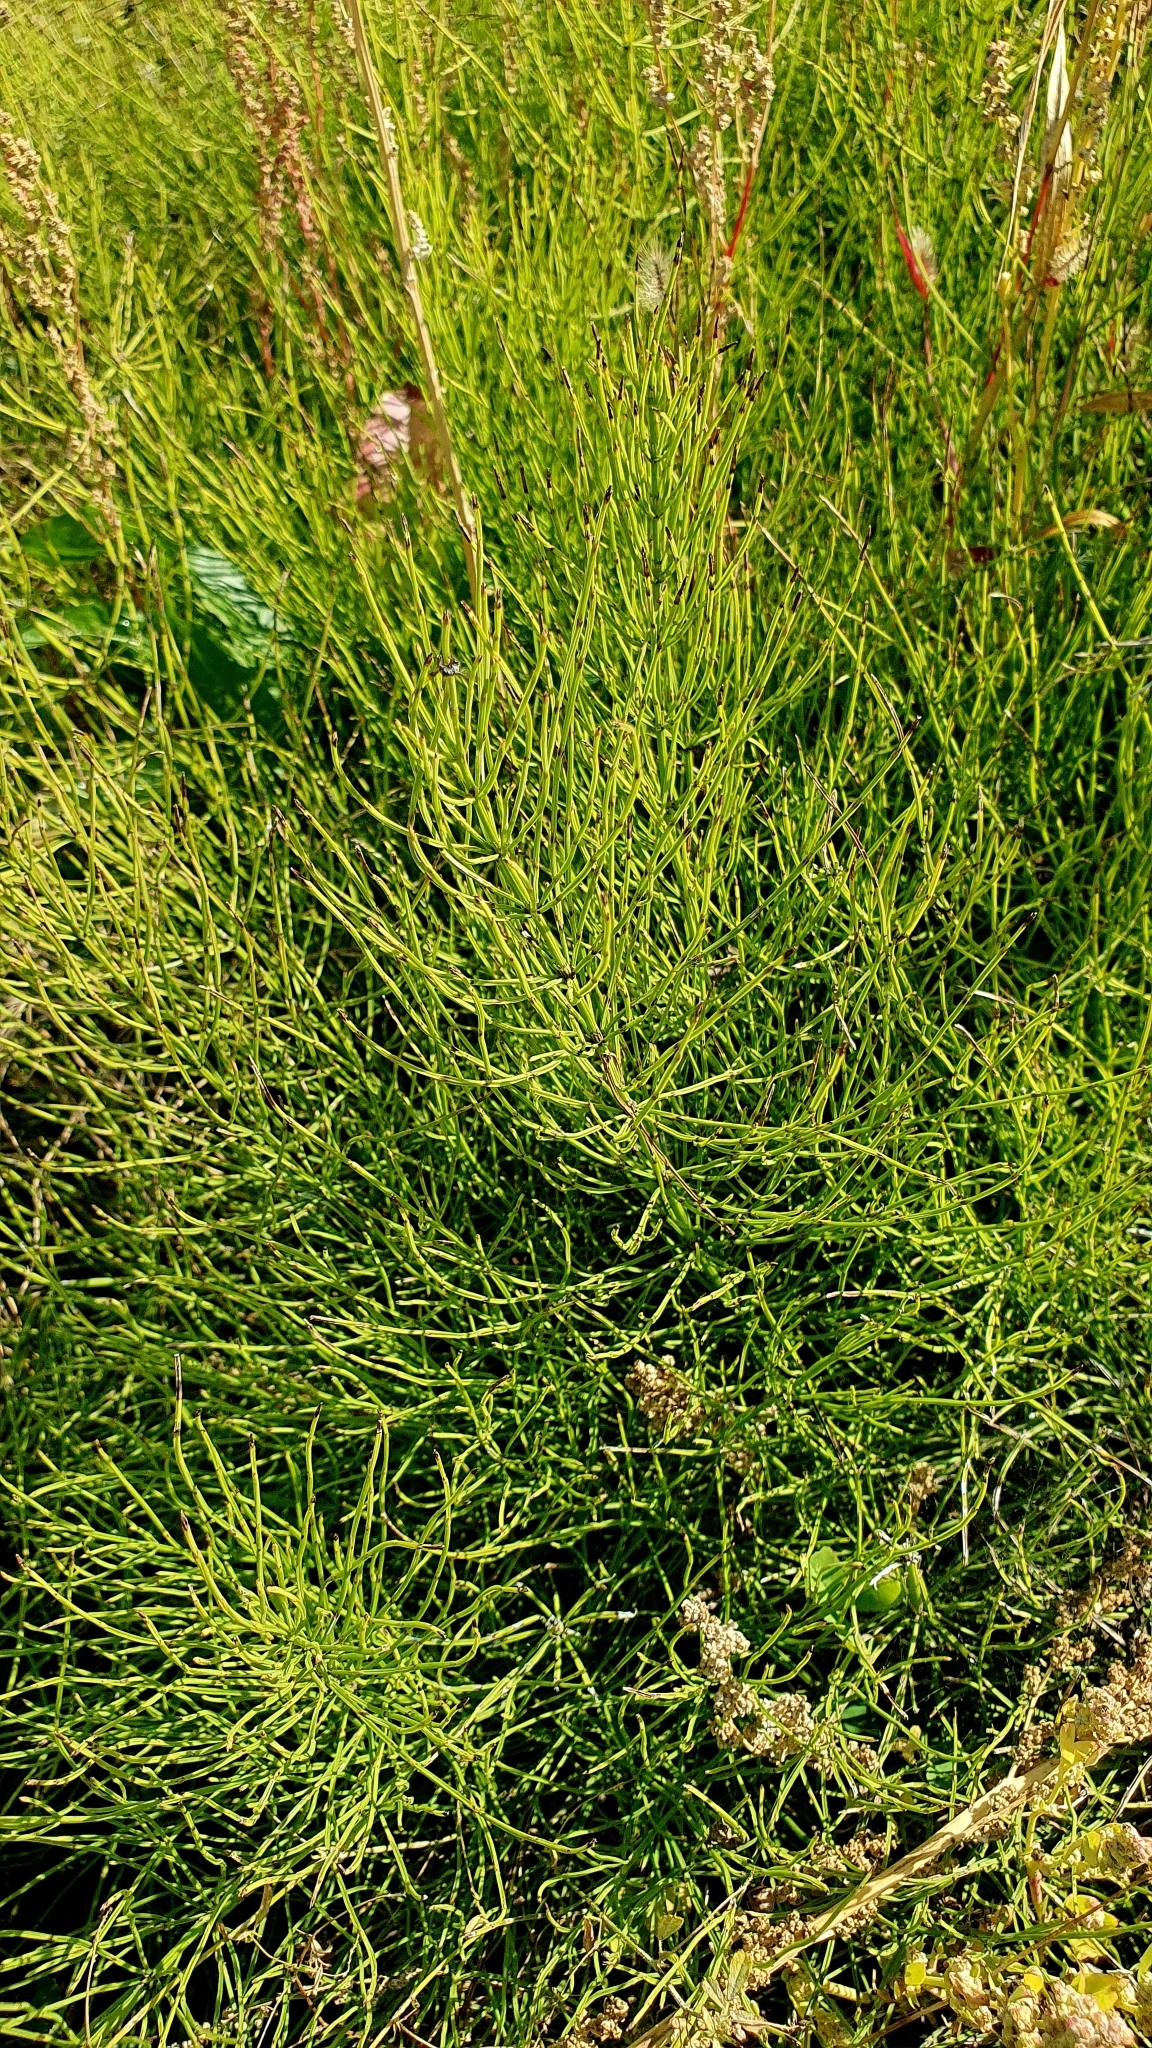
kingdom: Plantae
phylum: Tracheophyta
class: Polypodiopsida
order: Equisetales
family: Equisetaceae
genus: Equisetum
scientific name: Equisetum arvense
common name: Field horsetail
